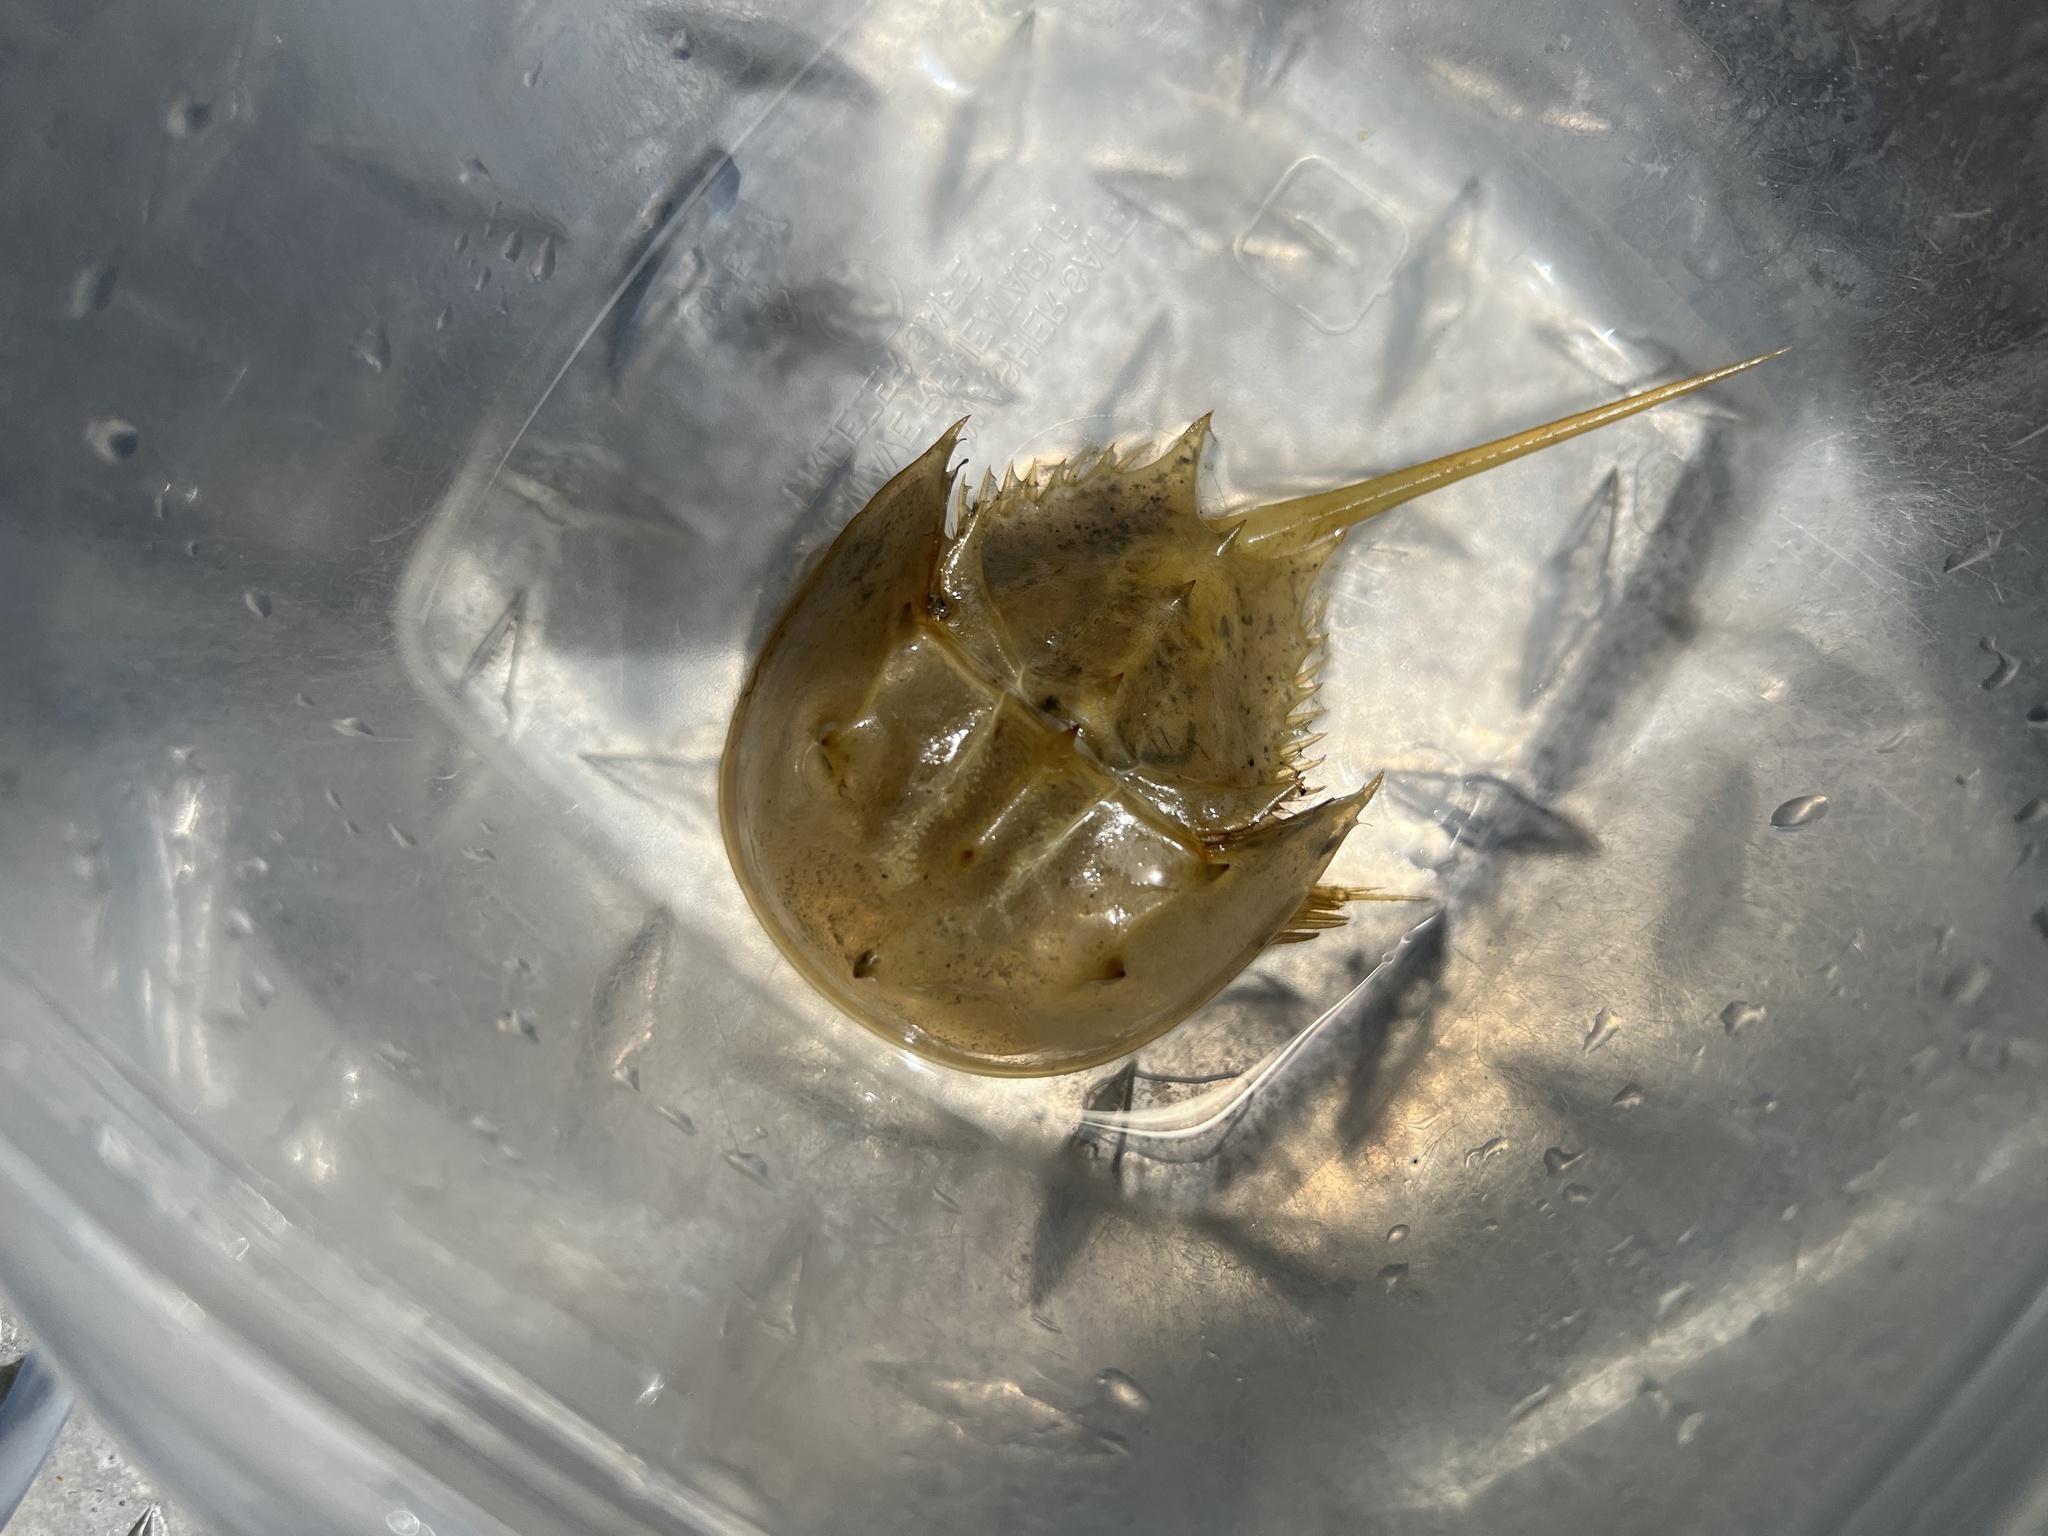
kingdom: Animalia
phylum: Arthropoda
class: Merostomata
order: Xiphosurida
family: Limulidae
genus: Limulus
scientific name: Limulus polyphemus
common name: Horseshoe crab
